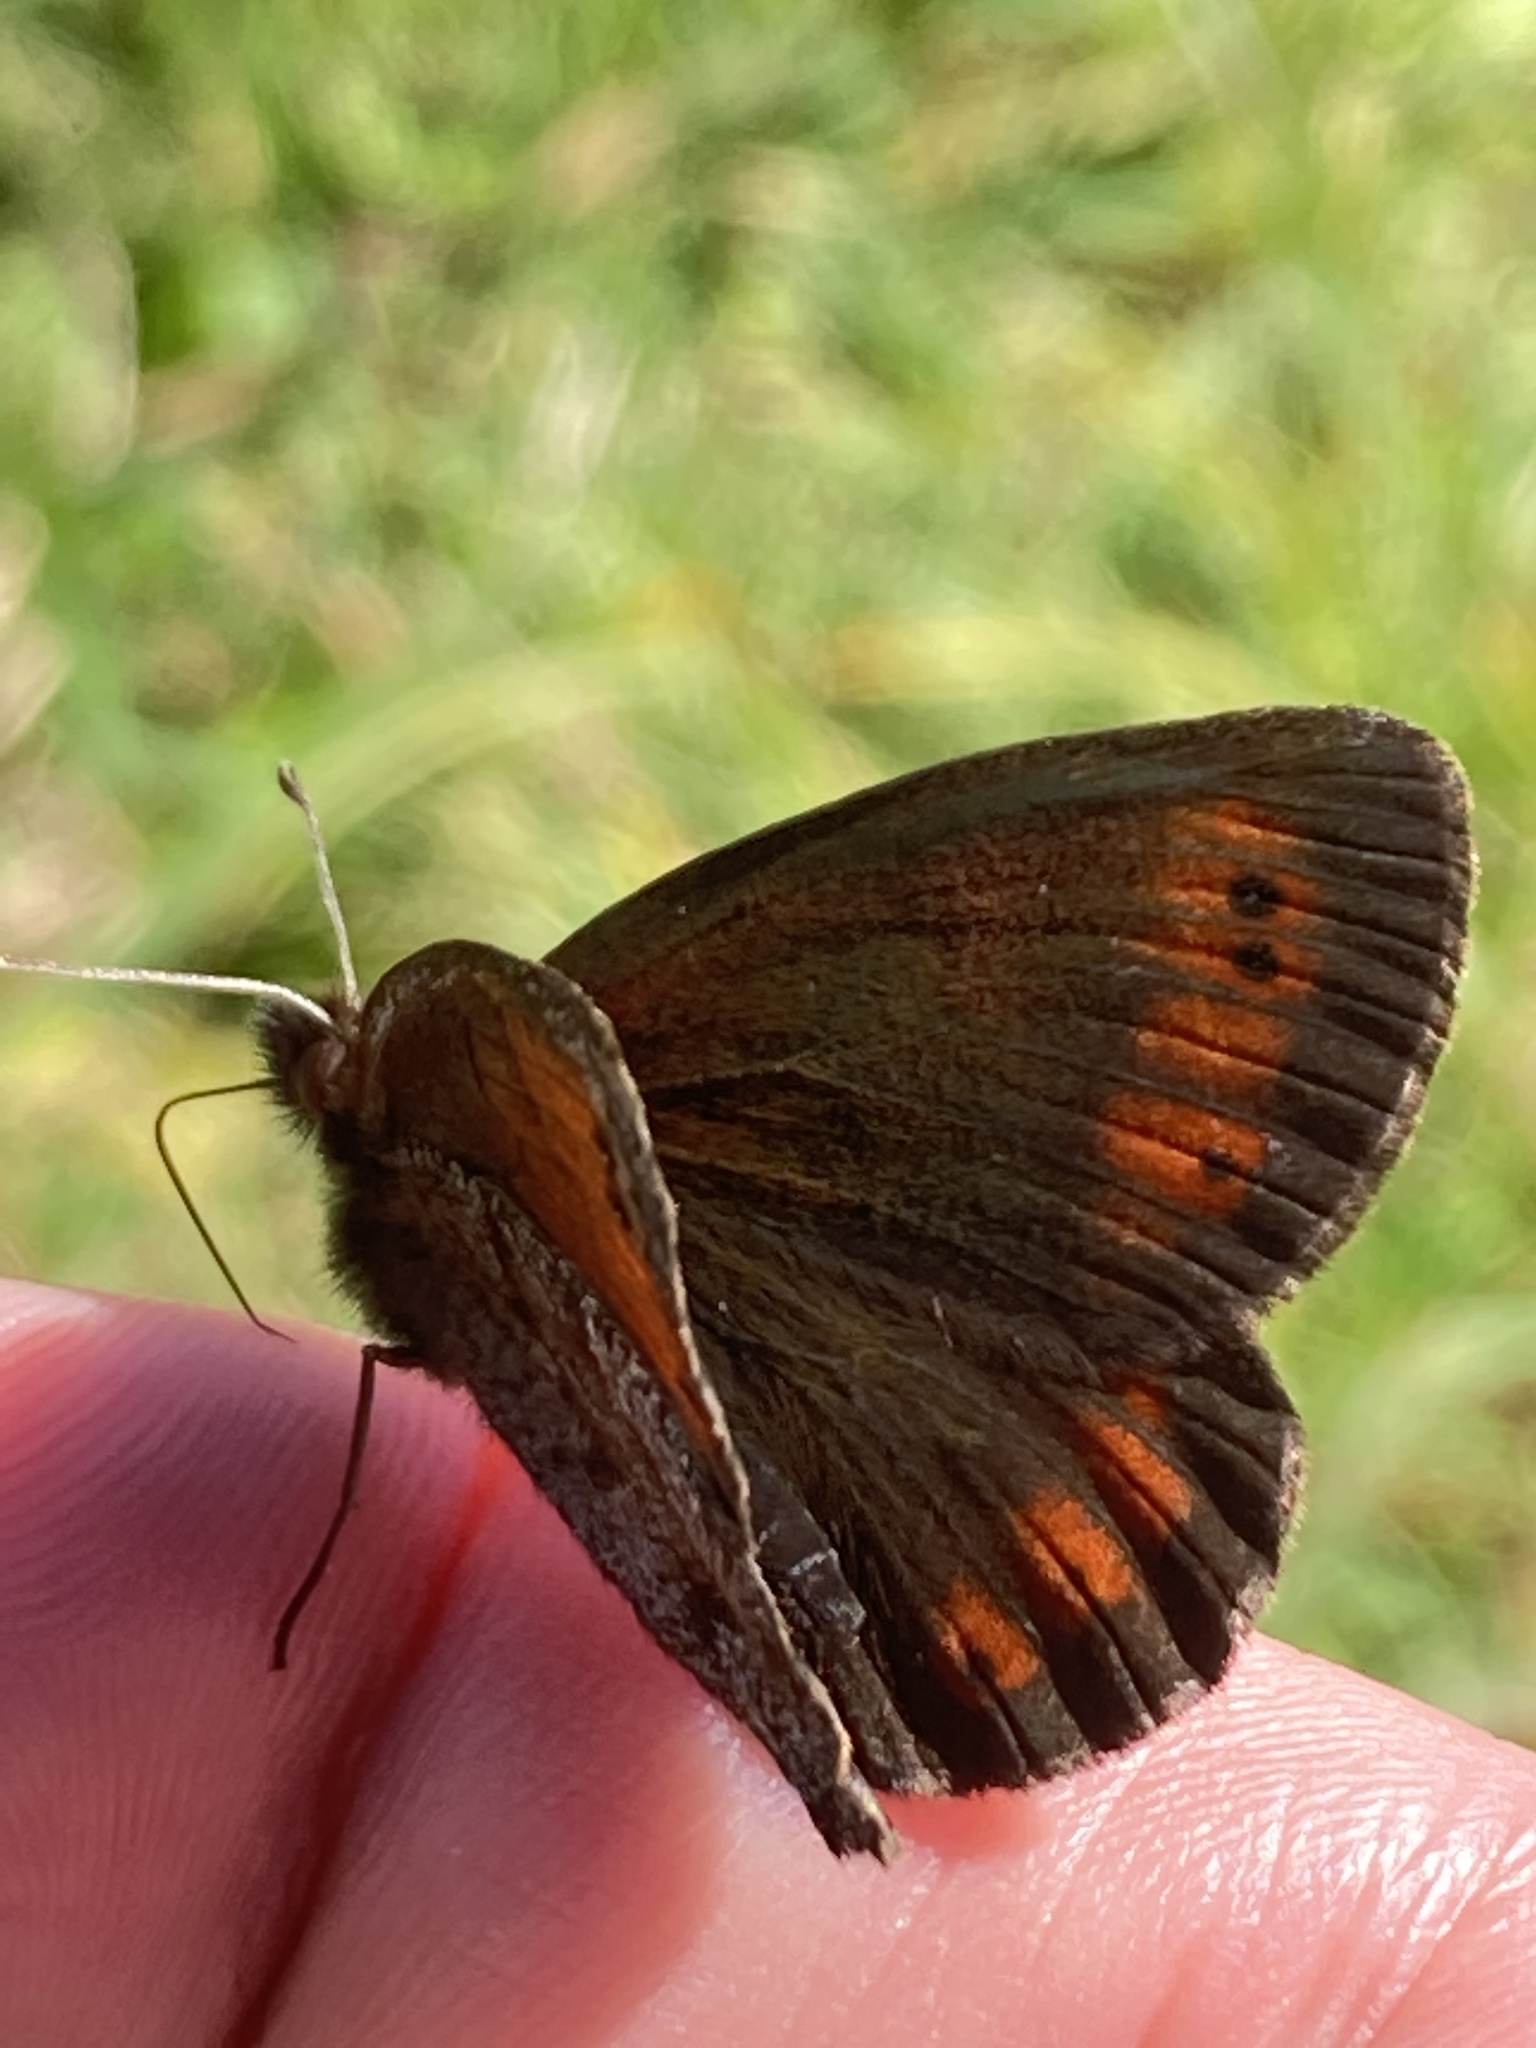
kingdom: Animalia
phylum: Arthropoda
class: Insecta
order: Lepidoptera
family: Nymphalidae
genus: Erebia
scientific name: Erebia pronoe
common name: Water ringlet
